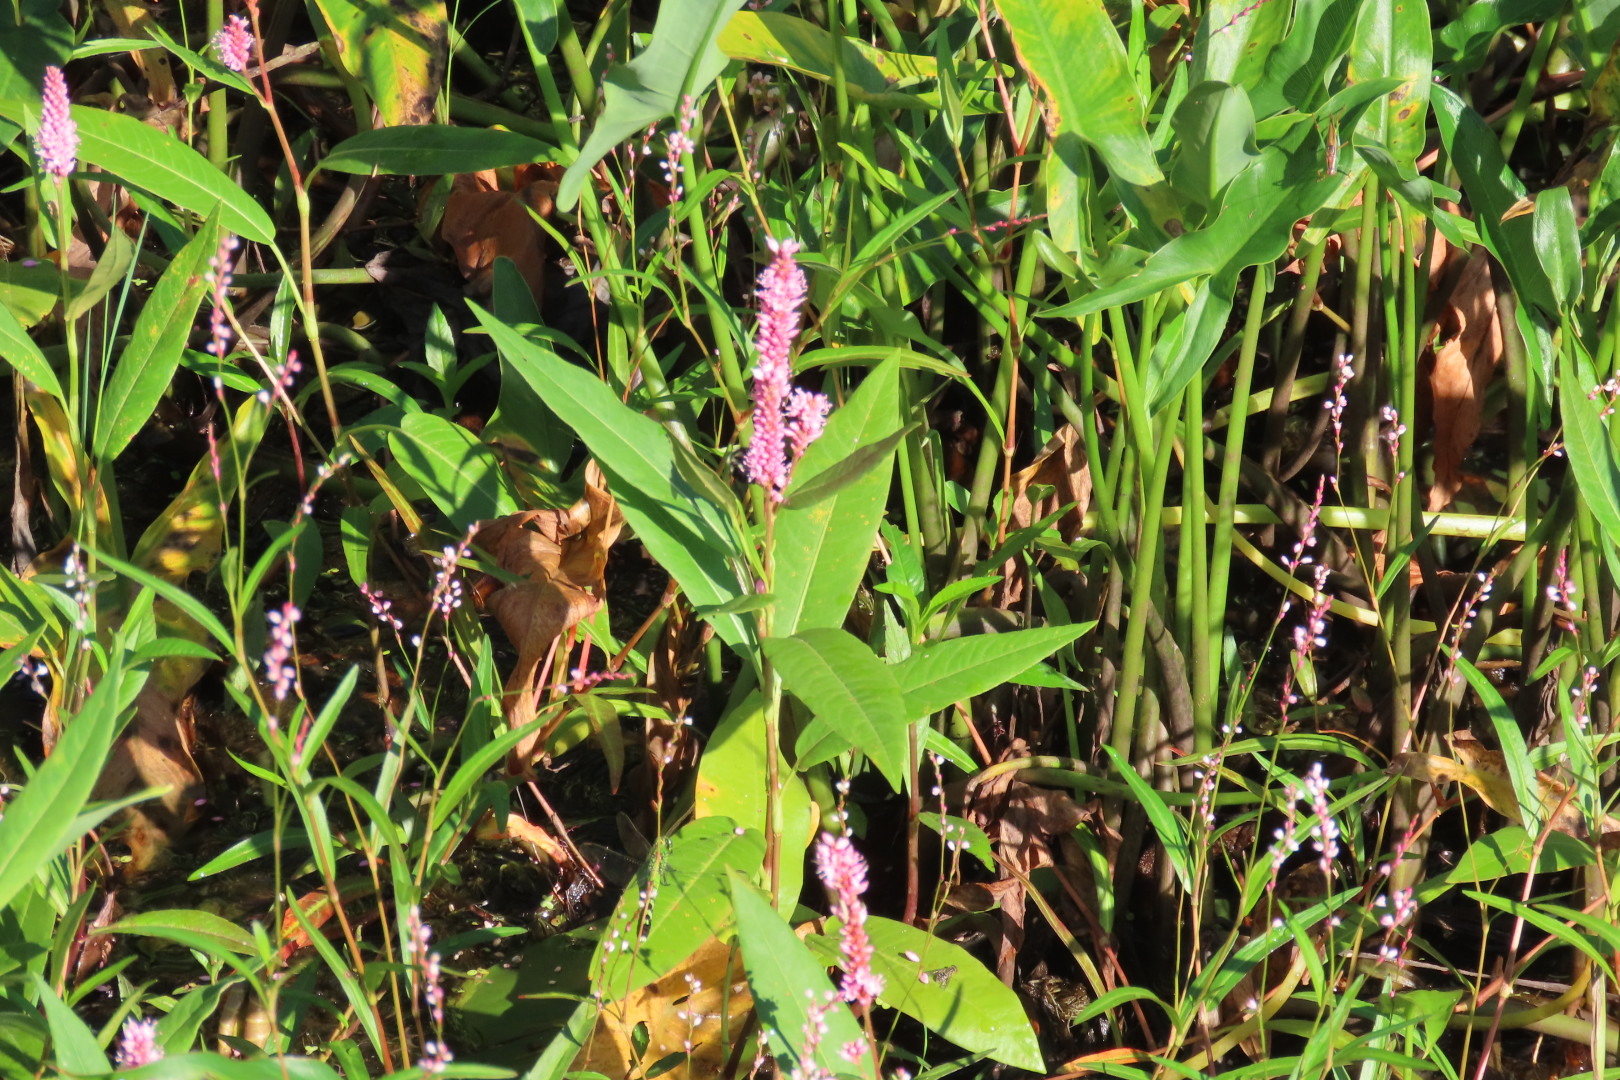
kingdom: Plantae
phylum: Tracheophyta
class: Magnoliopsida
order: Caryophyllales
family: Polygonaceae
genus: Persicaria
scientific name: Persicaria amphibia
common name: Amphibious bistort
